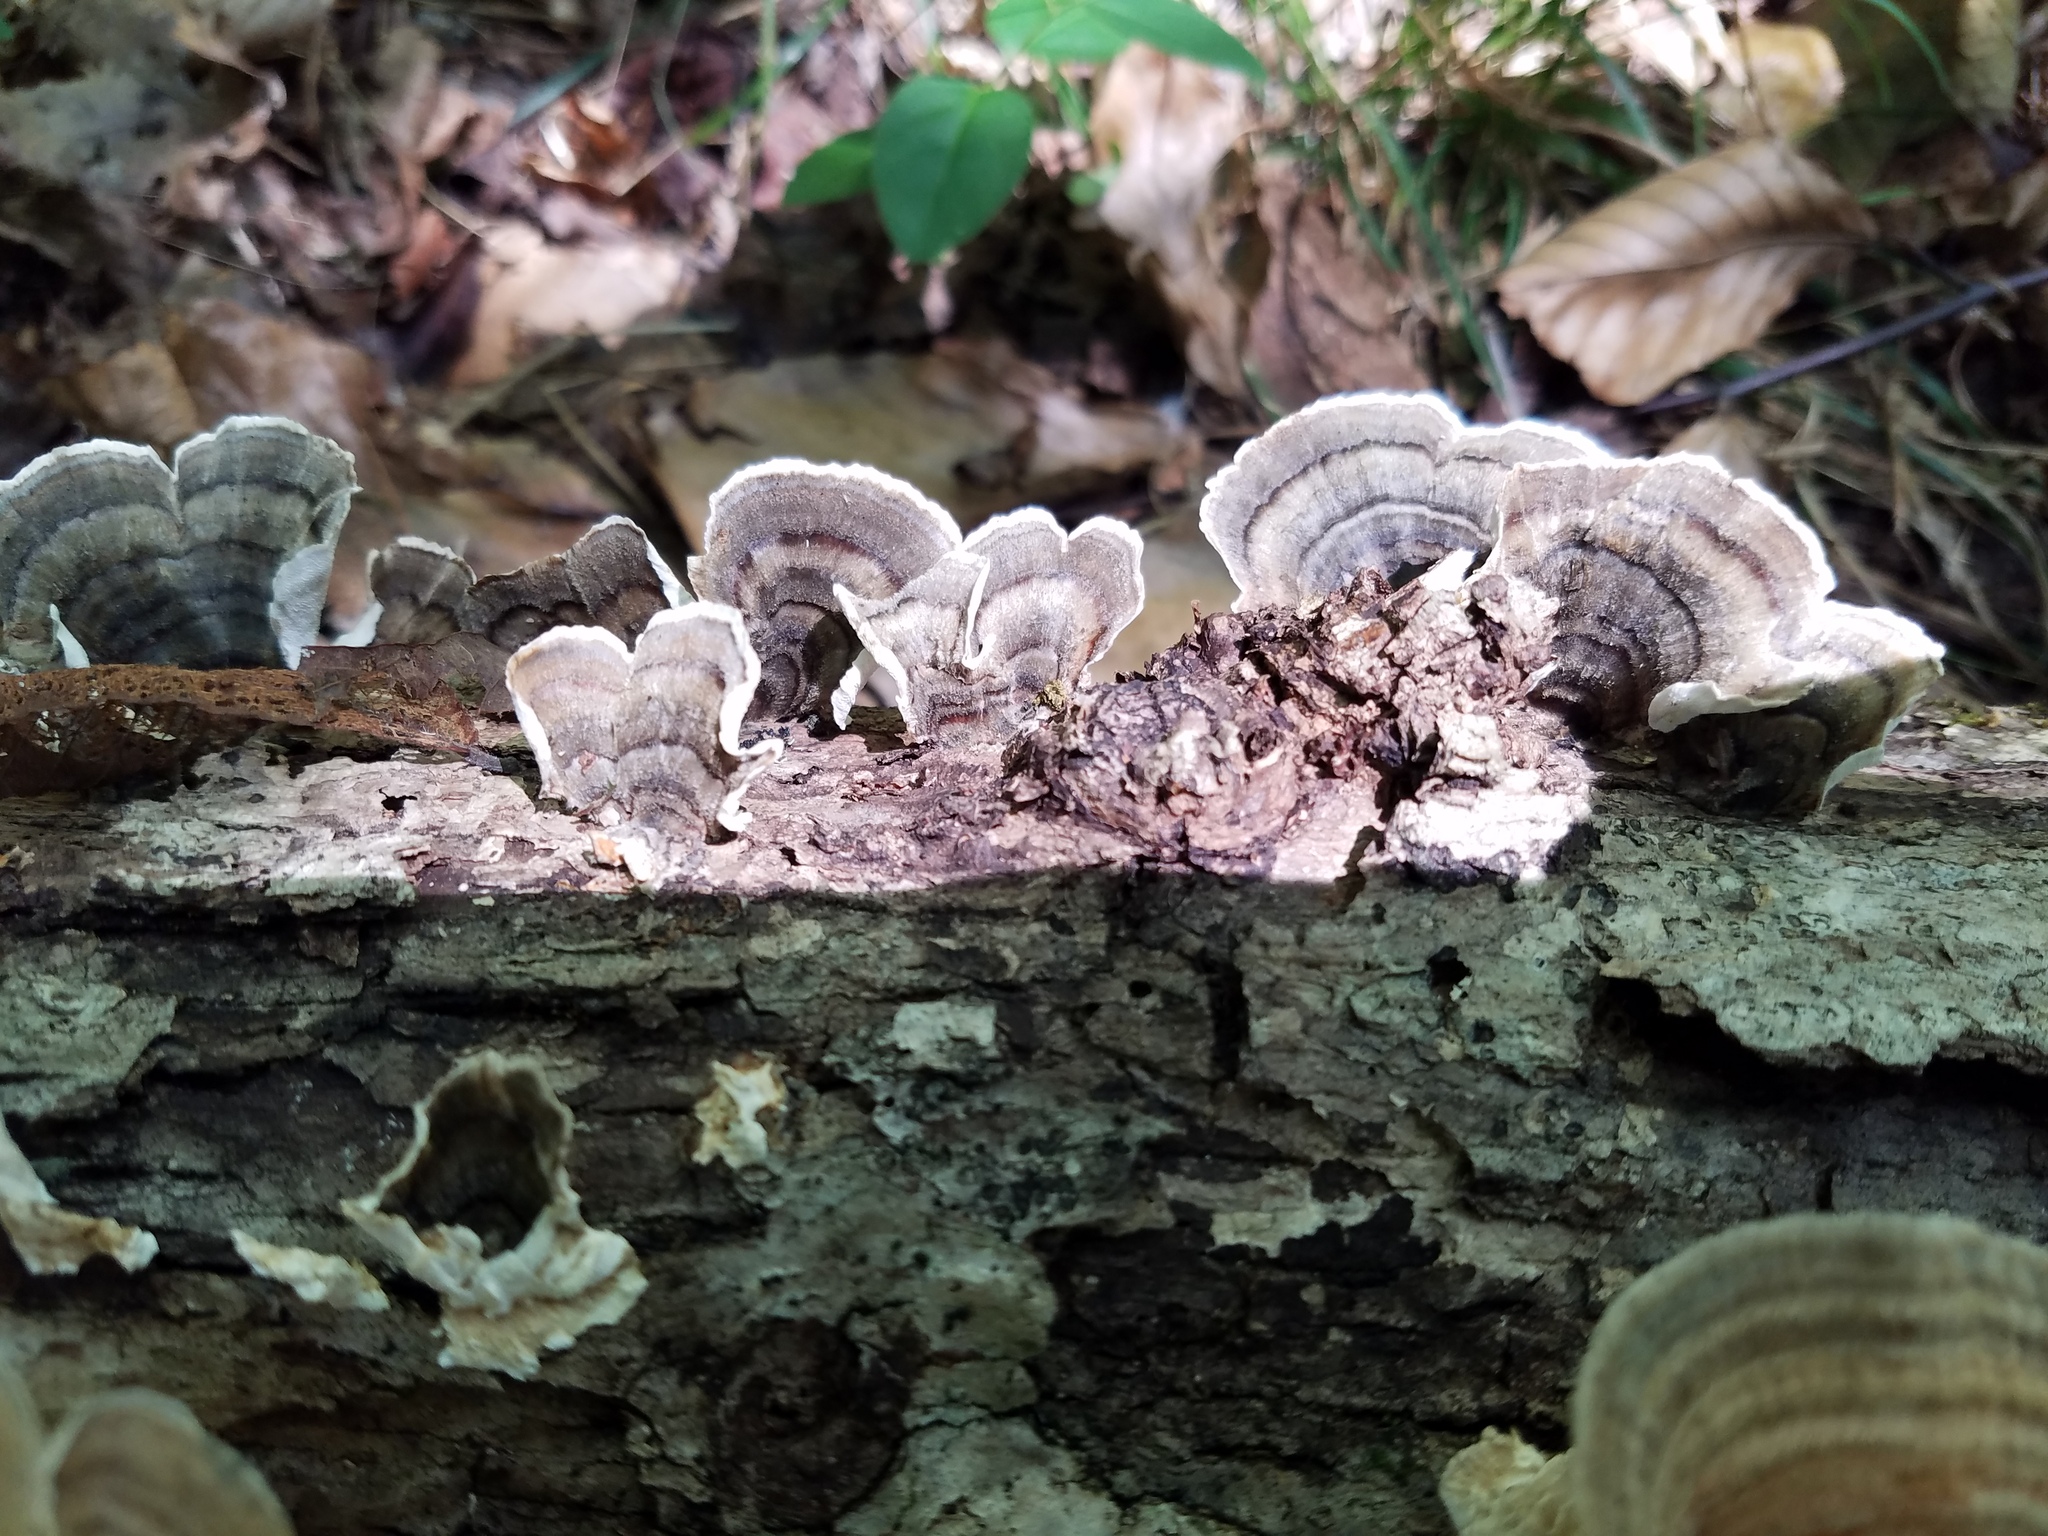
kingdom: Fungi
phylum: Basidiomycota
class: Agaricomycetes
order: Polyporales
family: Polyporaceae
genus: Trametes
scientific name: Trametes versicolor
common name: Turkeytail
